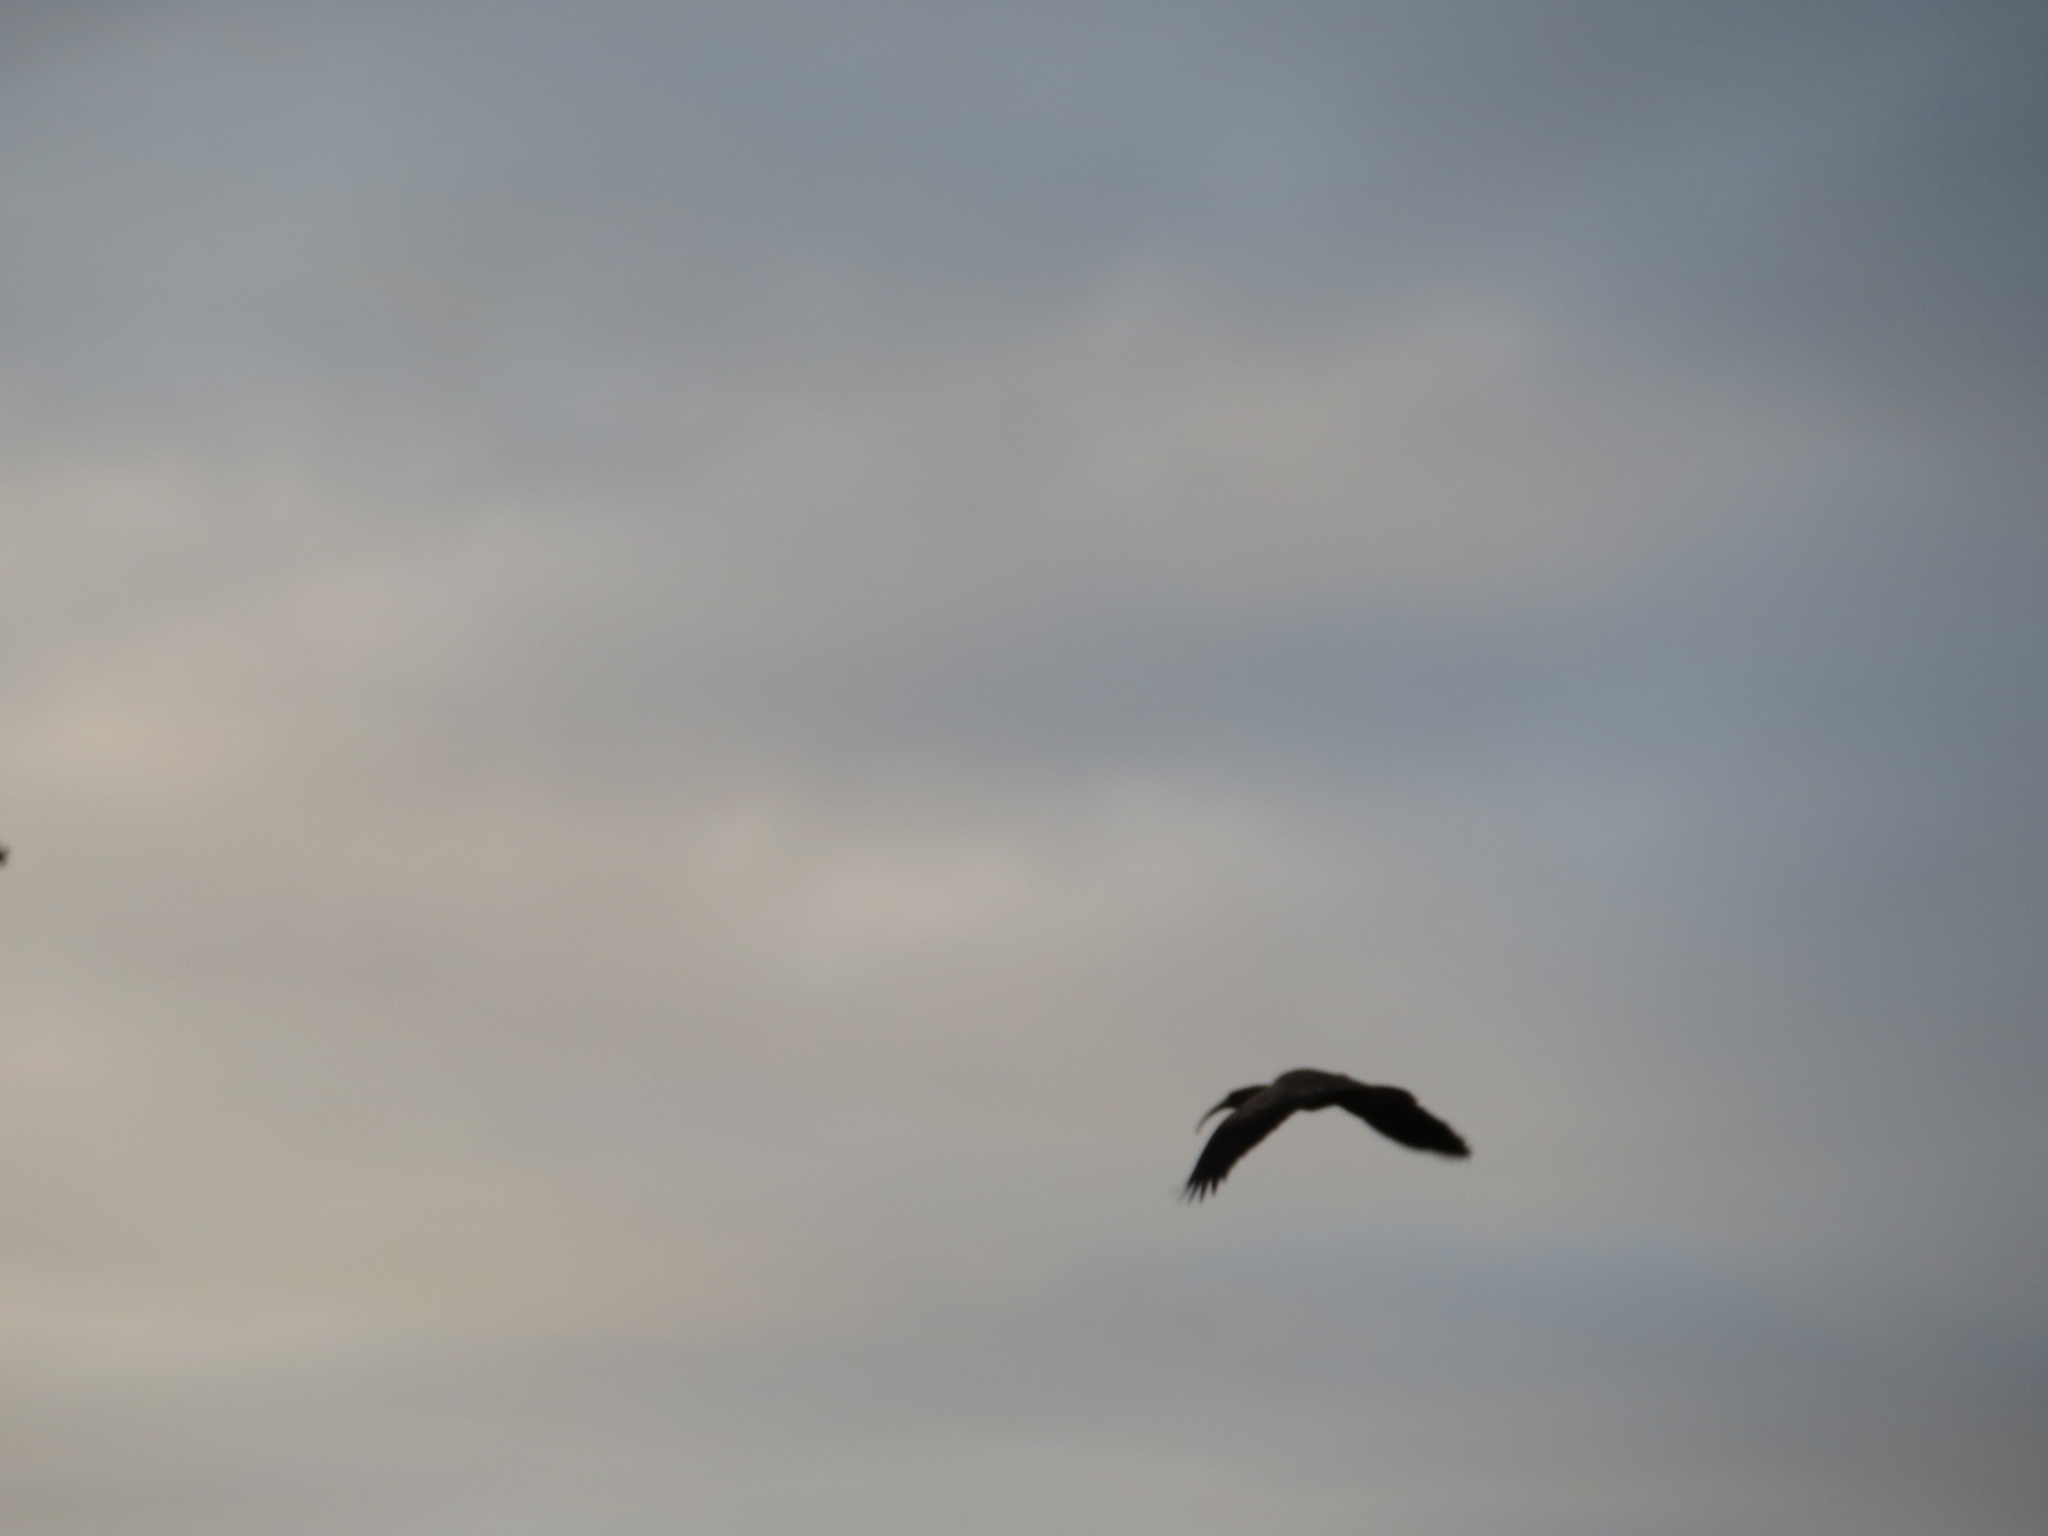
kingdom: Animalia
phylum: Chordata
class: Aves
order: Pelecaniformes
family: Threskiornithidae
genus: Theristicus
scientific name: Theristicus caerulescens
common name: Plumbeous ibis
